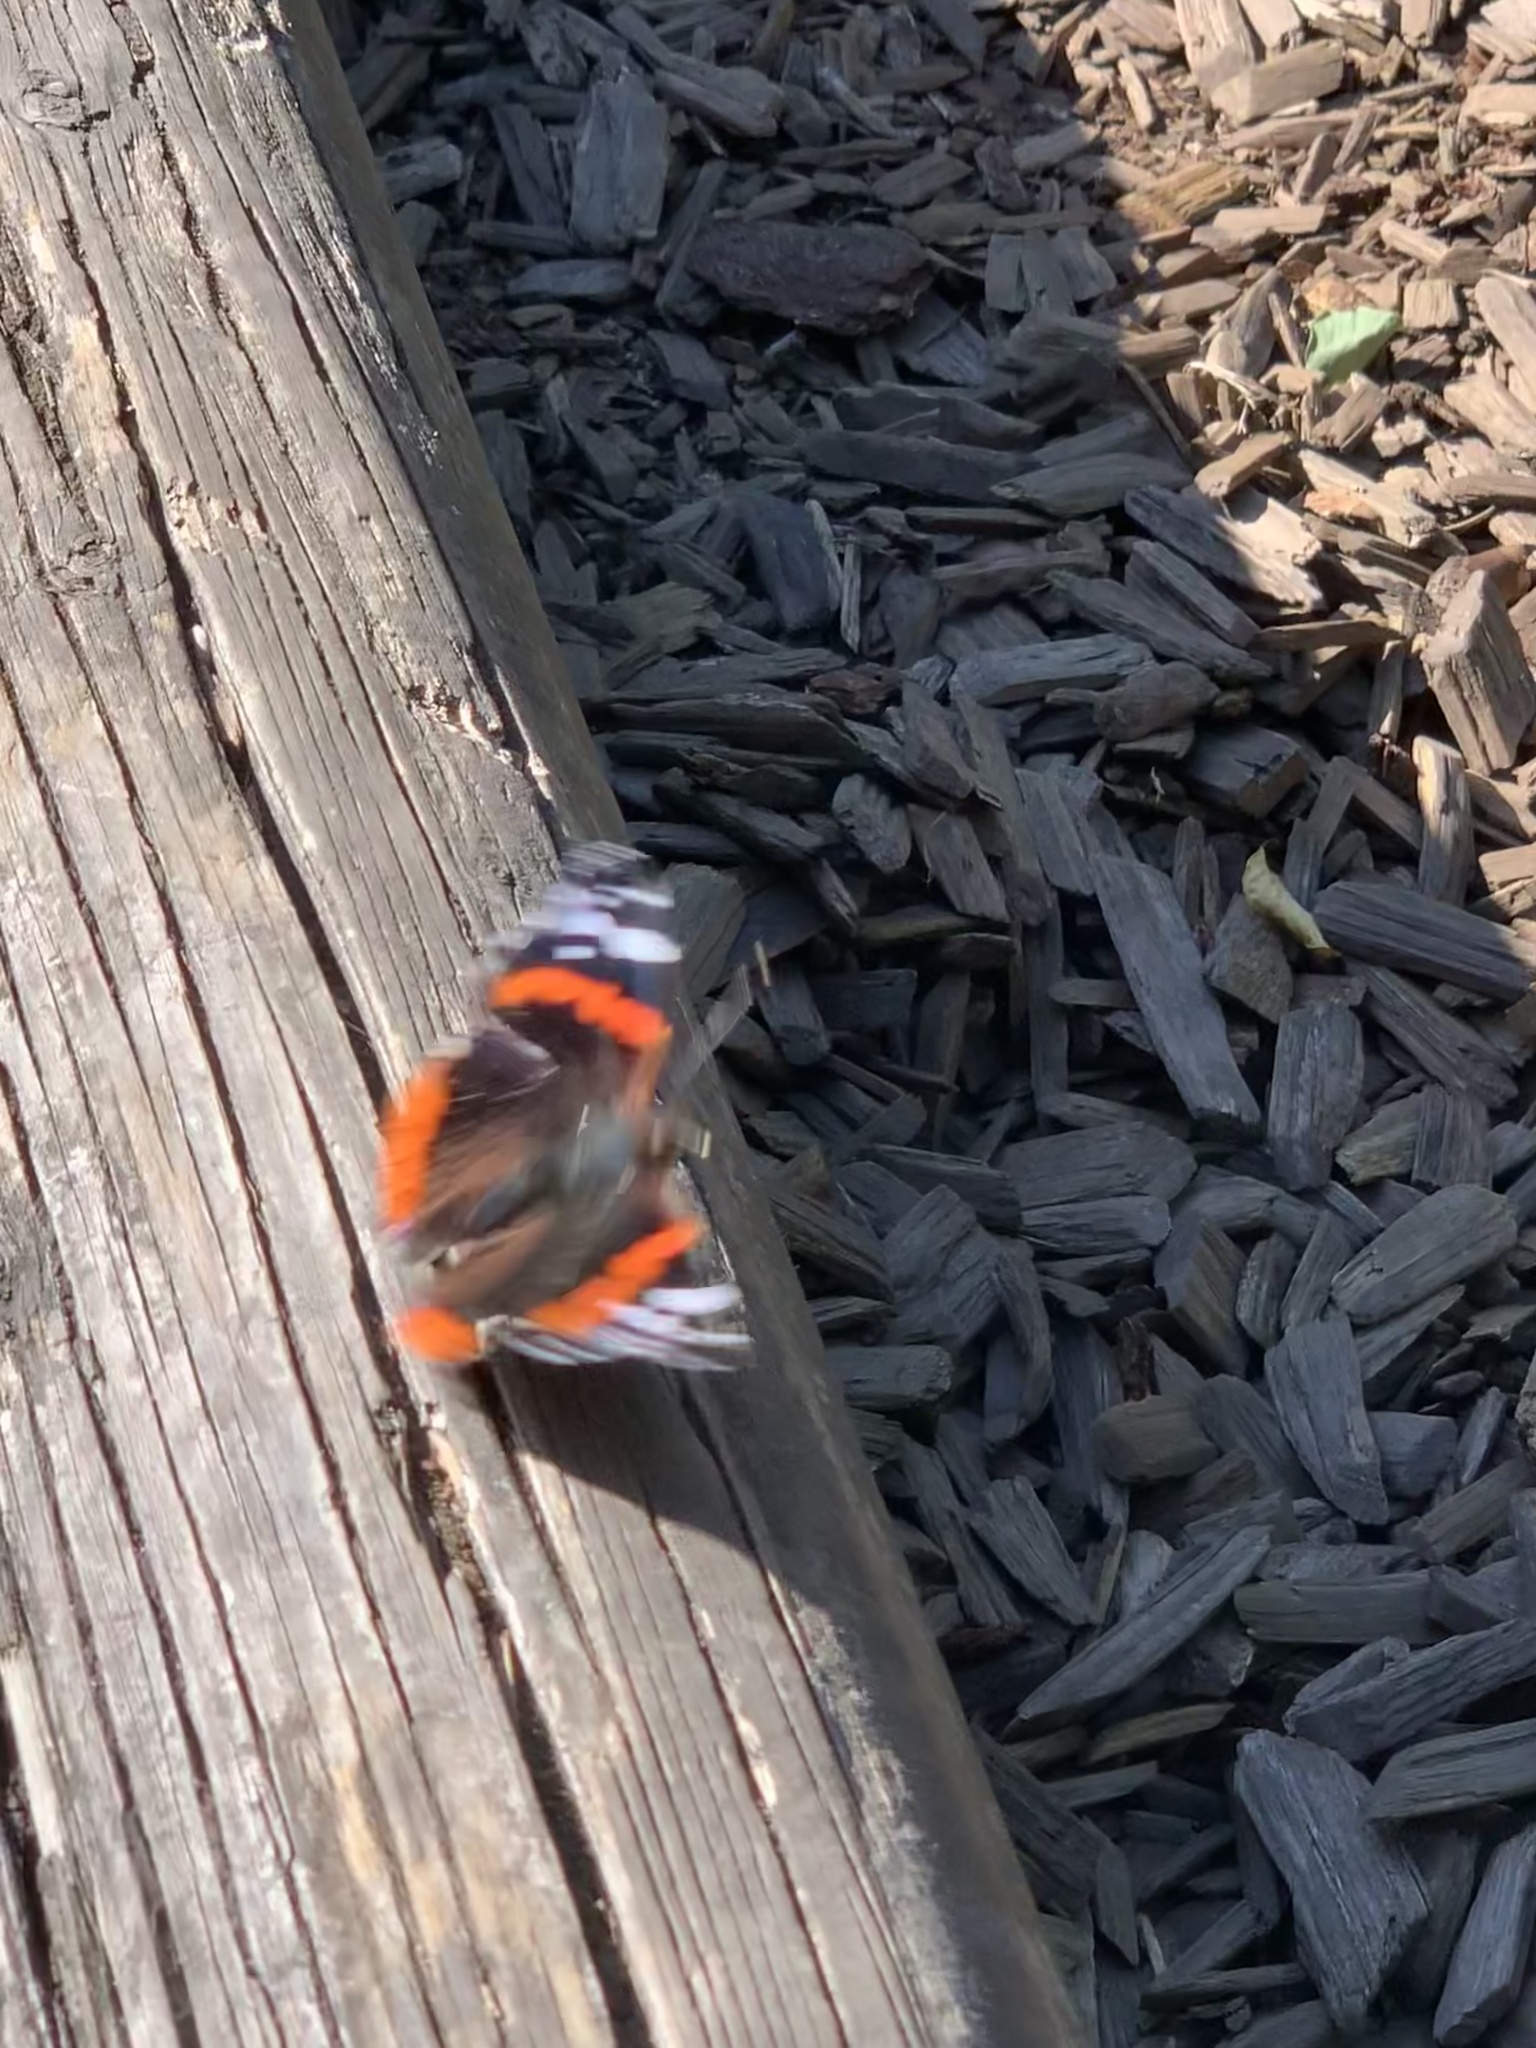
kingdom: Animalia
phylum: Arthropoda
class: Insecta
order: Lepidoptera
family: Nymphalidae
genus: Vanessa
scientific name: Vanessa atalanta
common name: Red admiral
